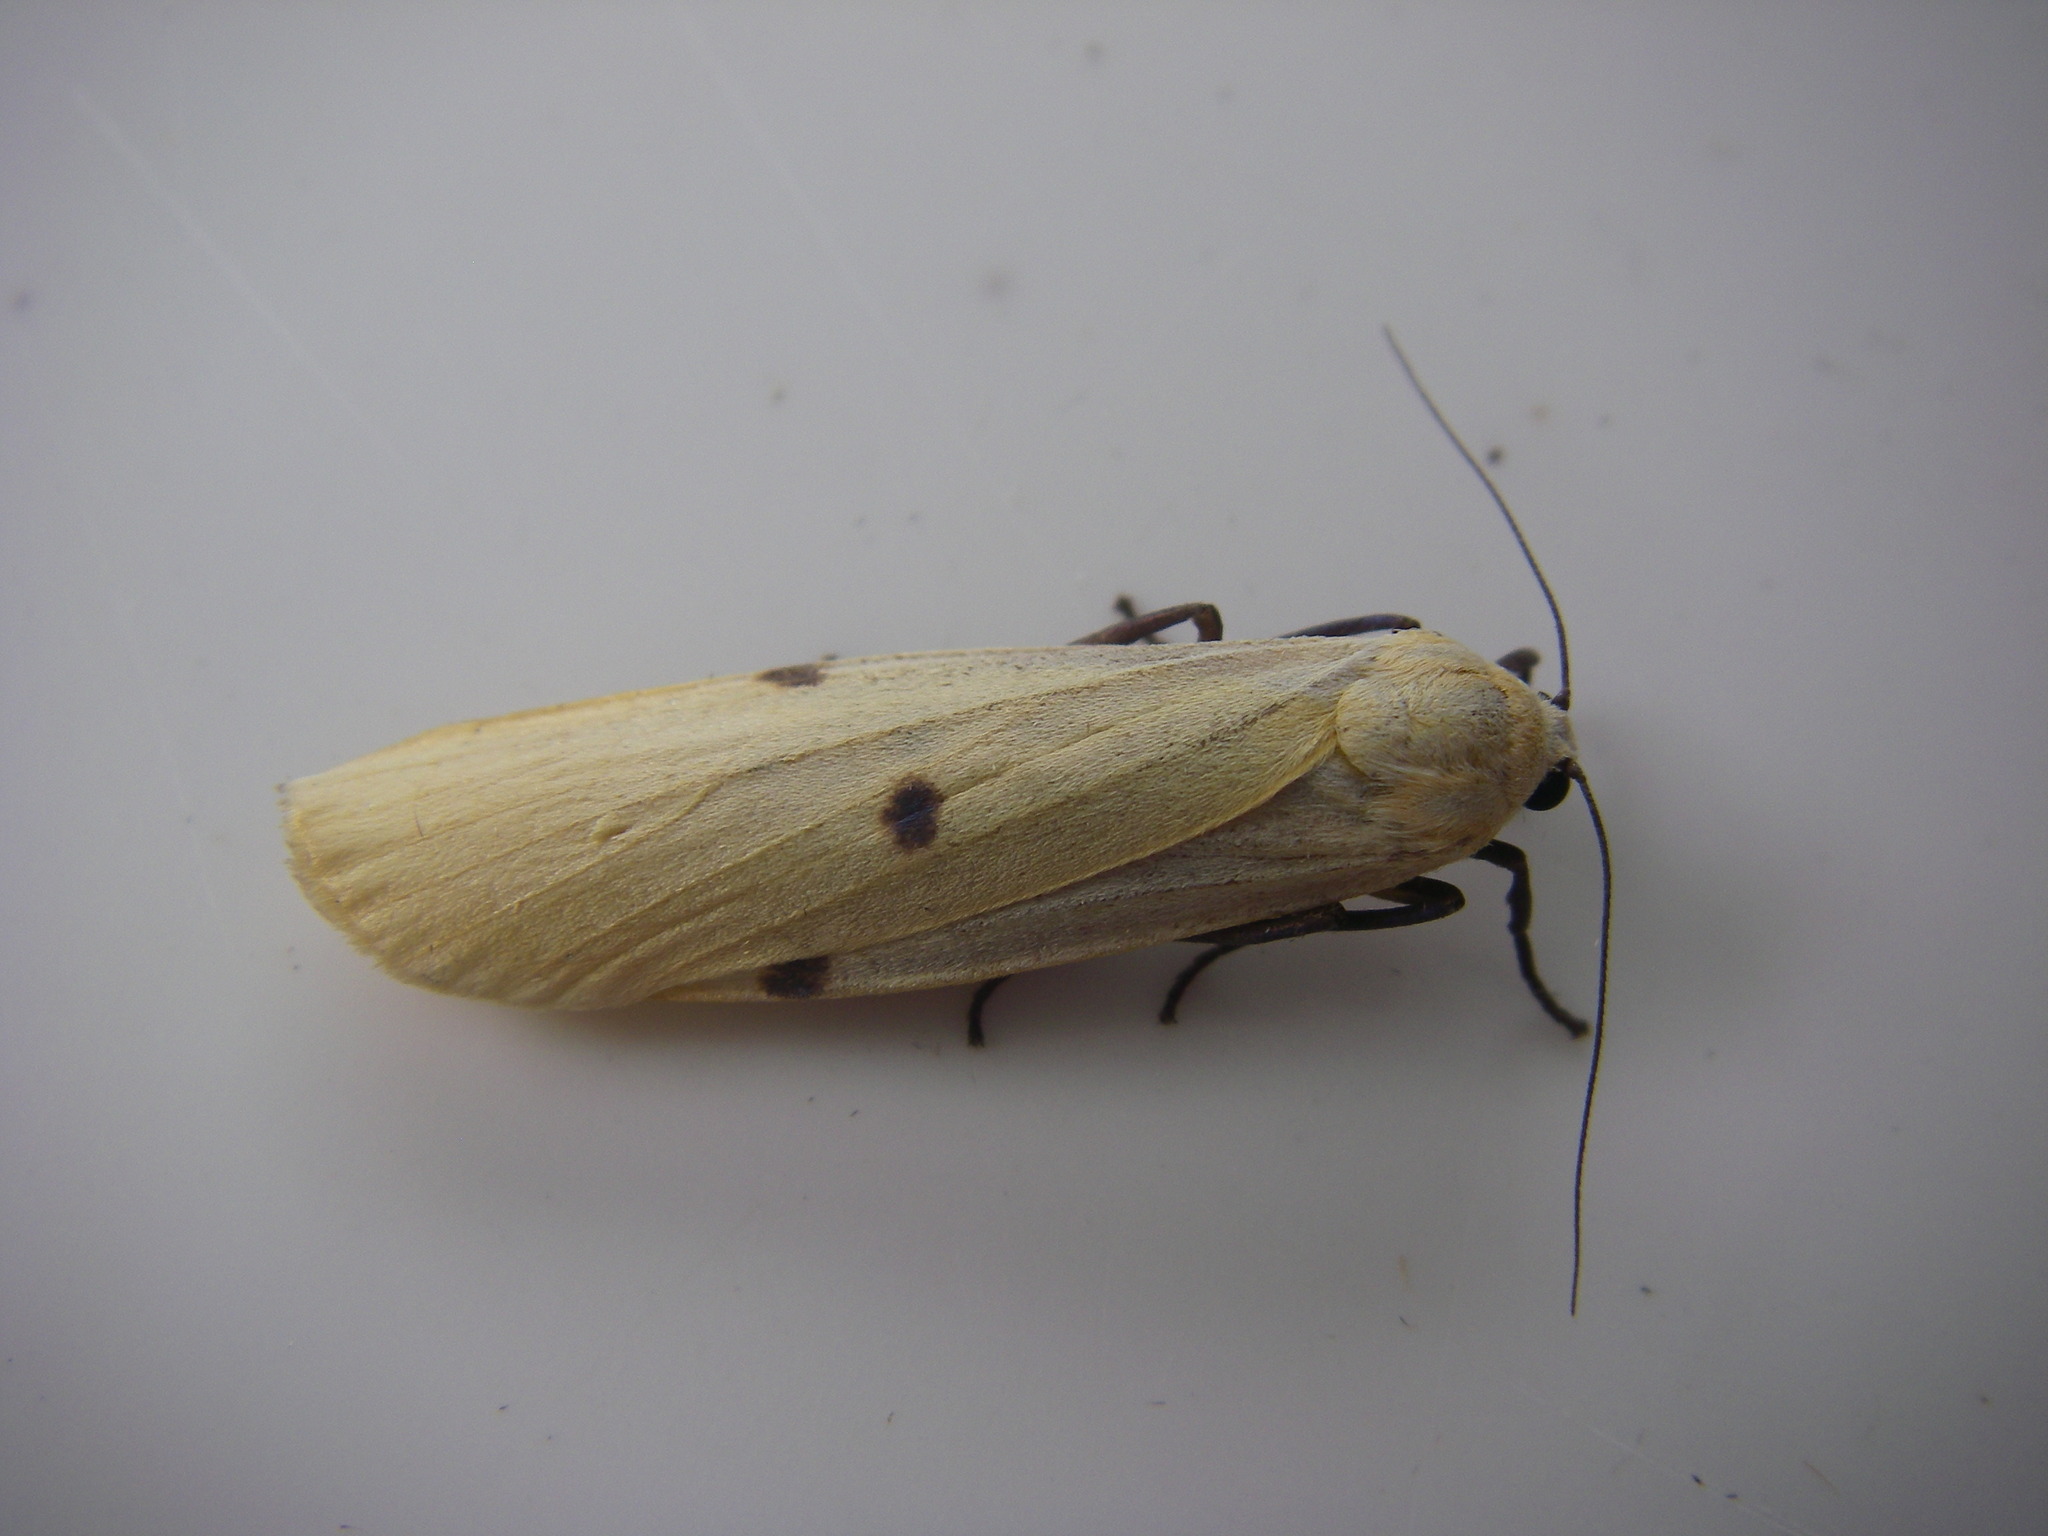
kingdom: Animalia
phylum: Arthropoda
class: Insecta
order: Lepidoptera
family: Erebidae
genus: Lithosia
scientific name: Lithosia quadra
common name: Four-spotted footman
